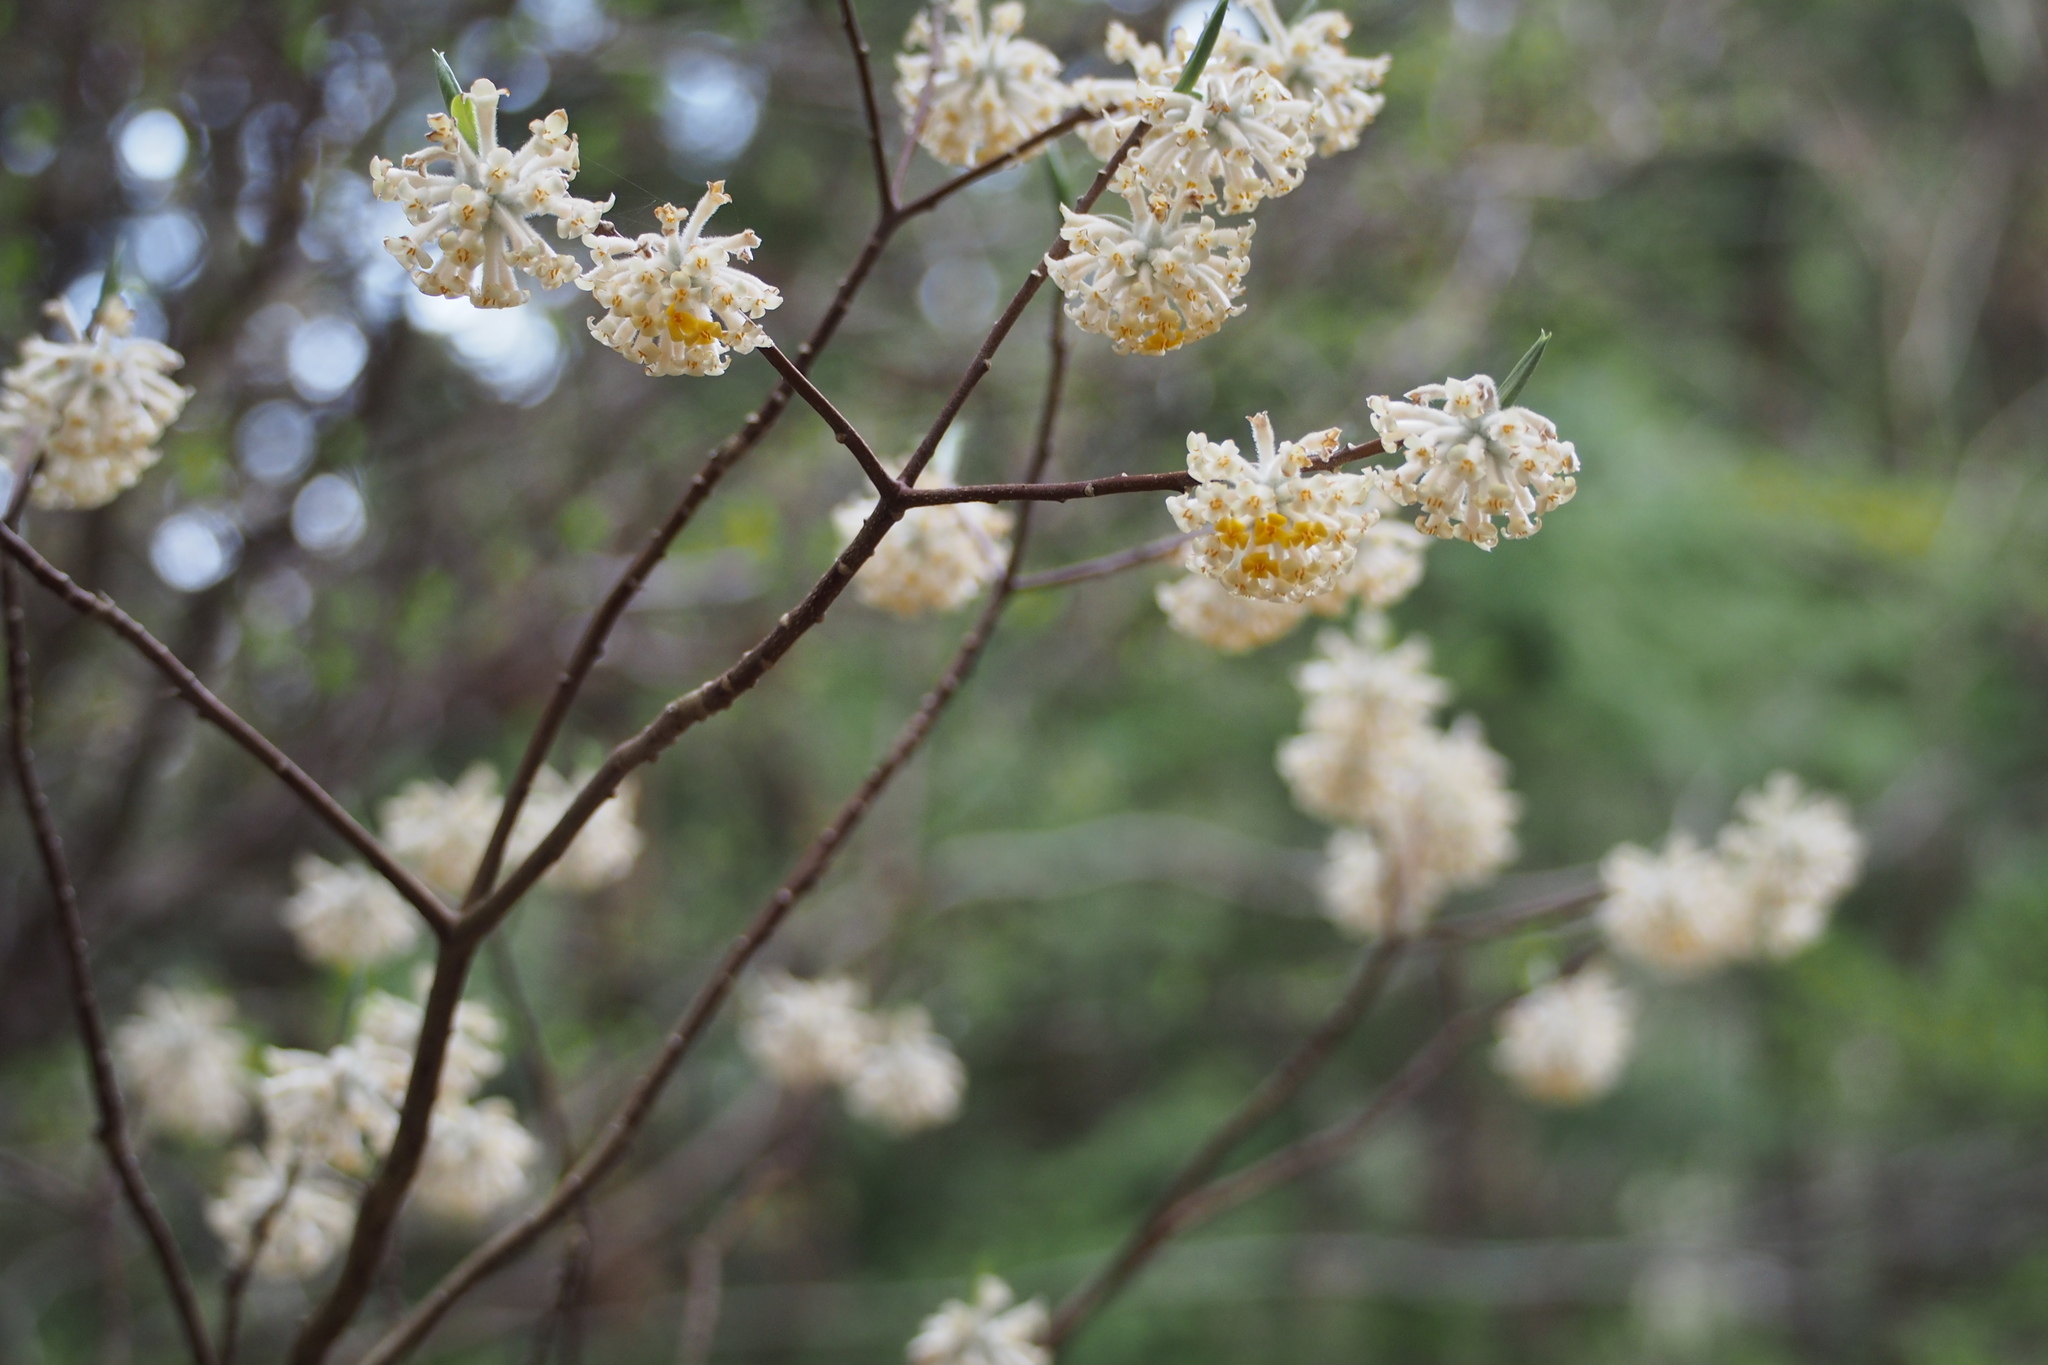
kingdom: Plantae
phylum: Tracheophyta
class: Magnoliopsida
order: Malvales
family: Thymelaeaceae
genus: Edgeworthia
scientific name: Edgeworthia chrysantha
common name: Oriental paperbush
